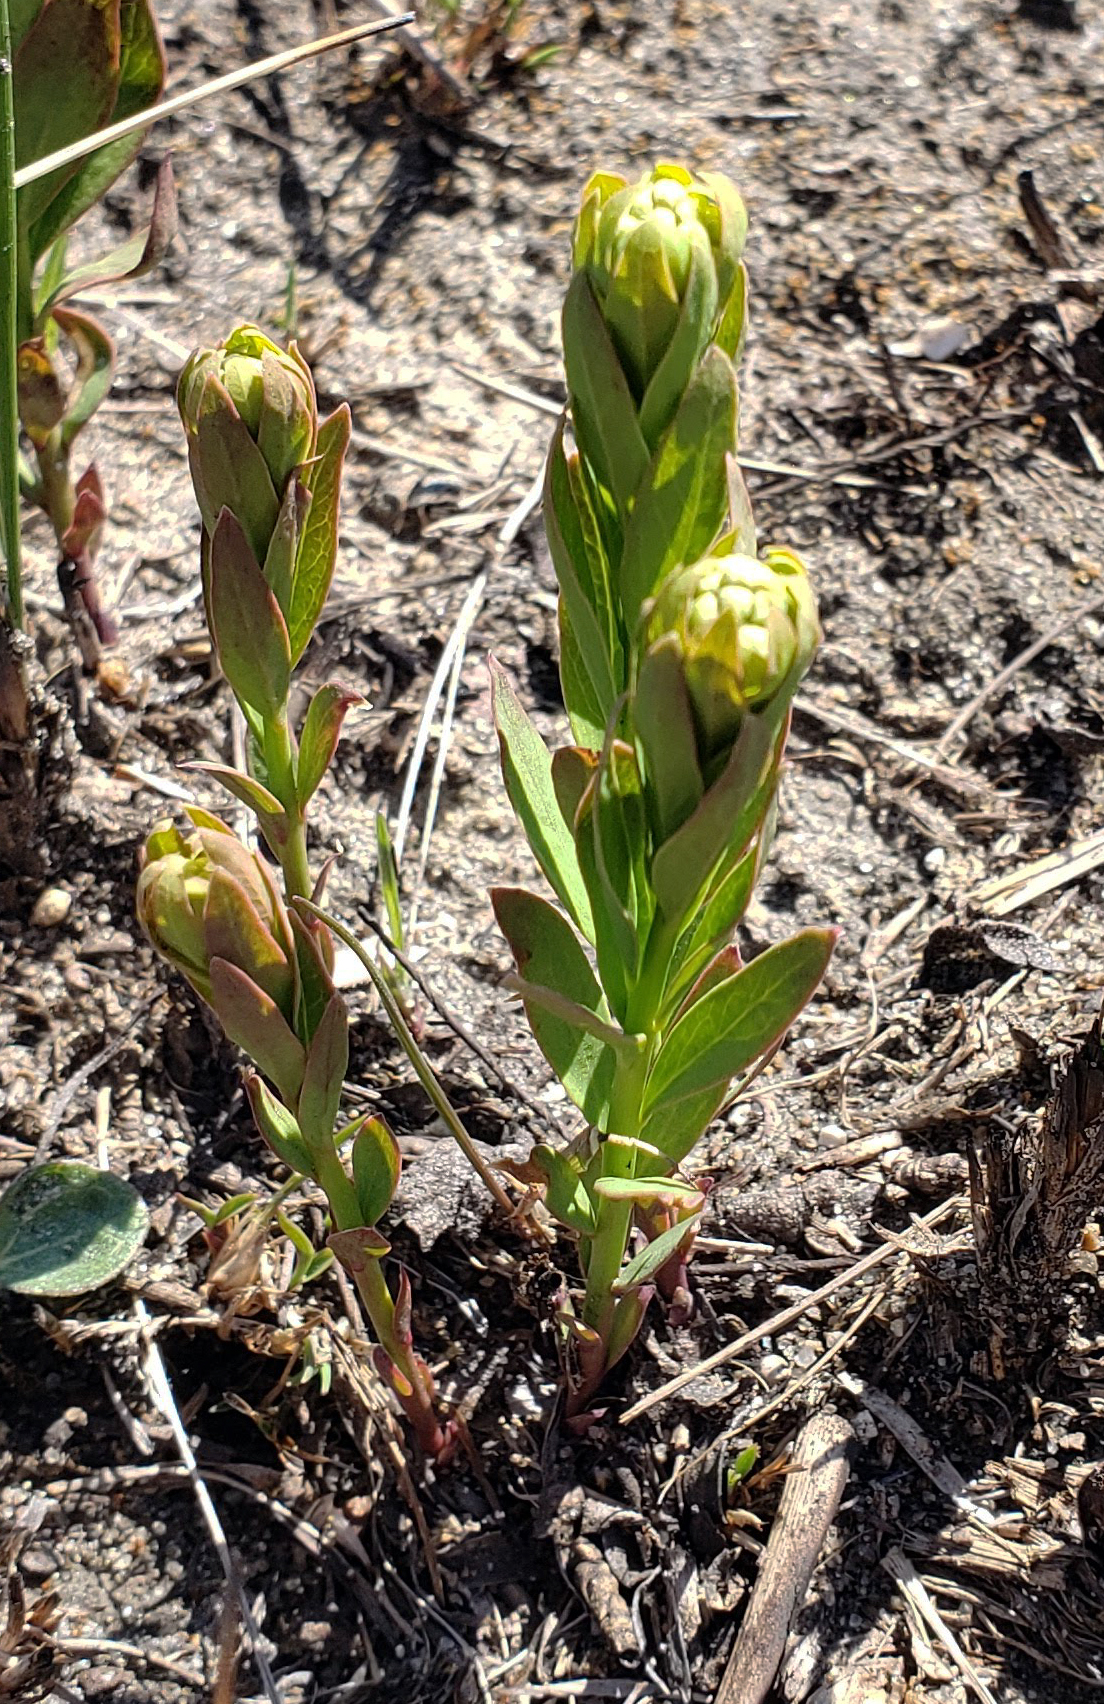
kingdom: Plantae
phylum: Tracheophyta
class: Magnoliopsida
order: Santalales
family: Comandraceae
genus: Comandra
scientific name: Comandra umbellata
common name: Bastard toadflax
